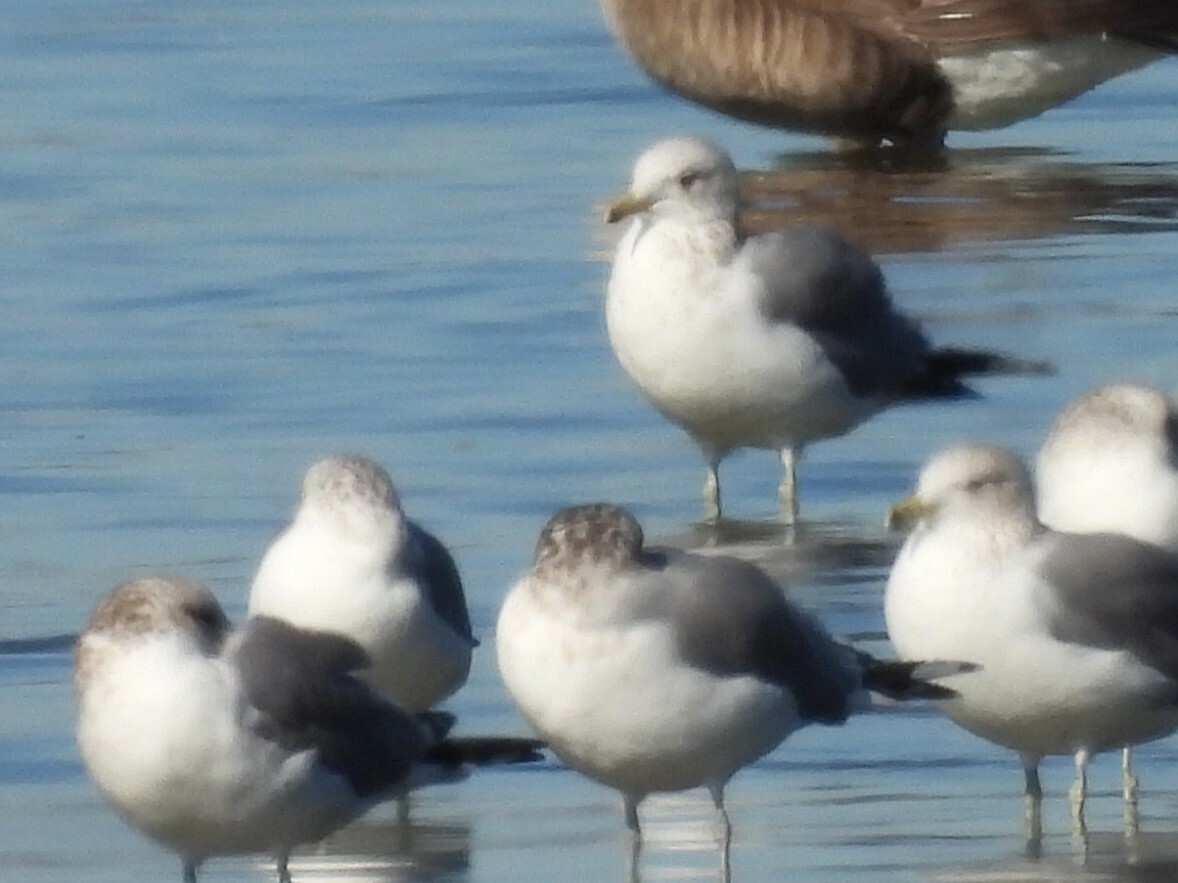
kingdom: Animalia
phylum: Chordata
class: Aves
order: Charadriiformes
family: Laridae
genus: Larus
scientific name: Larus californicus
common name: California gull
